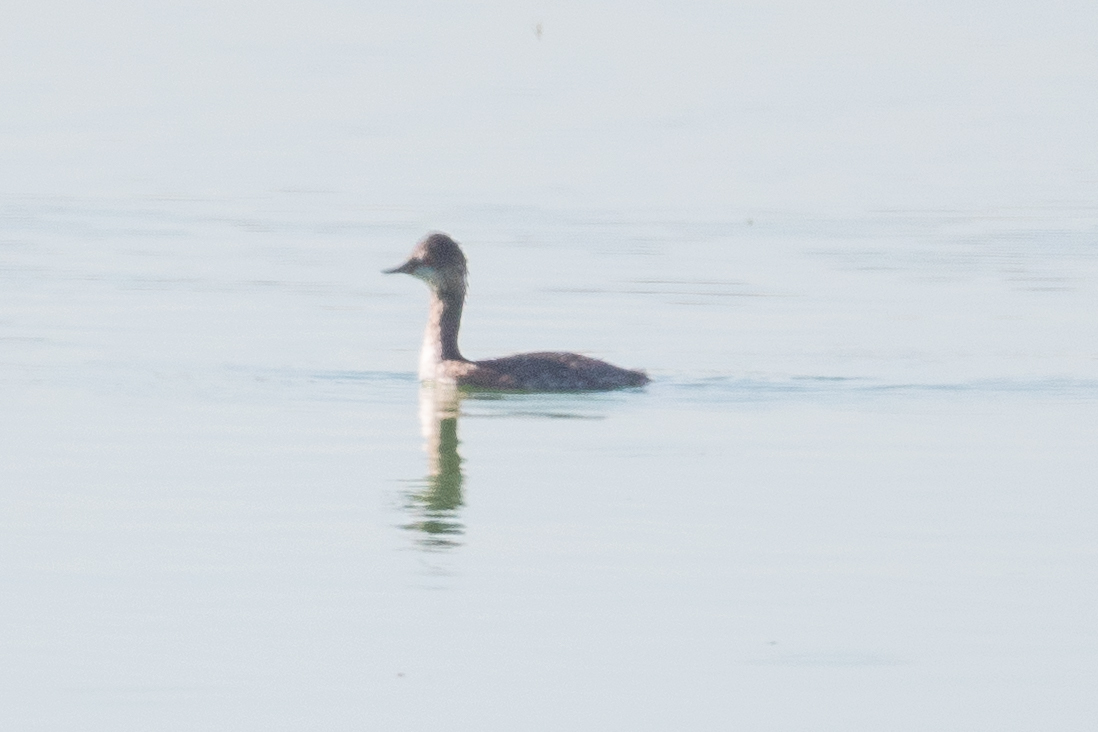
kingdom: Animalia
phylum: Chordata
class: Aves
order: Podicipediformes
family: Podicipedidae
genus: Podiceps
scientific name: Podiceps nigricollis
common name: Black-necked grebe
